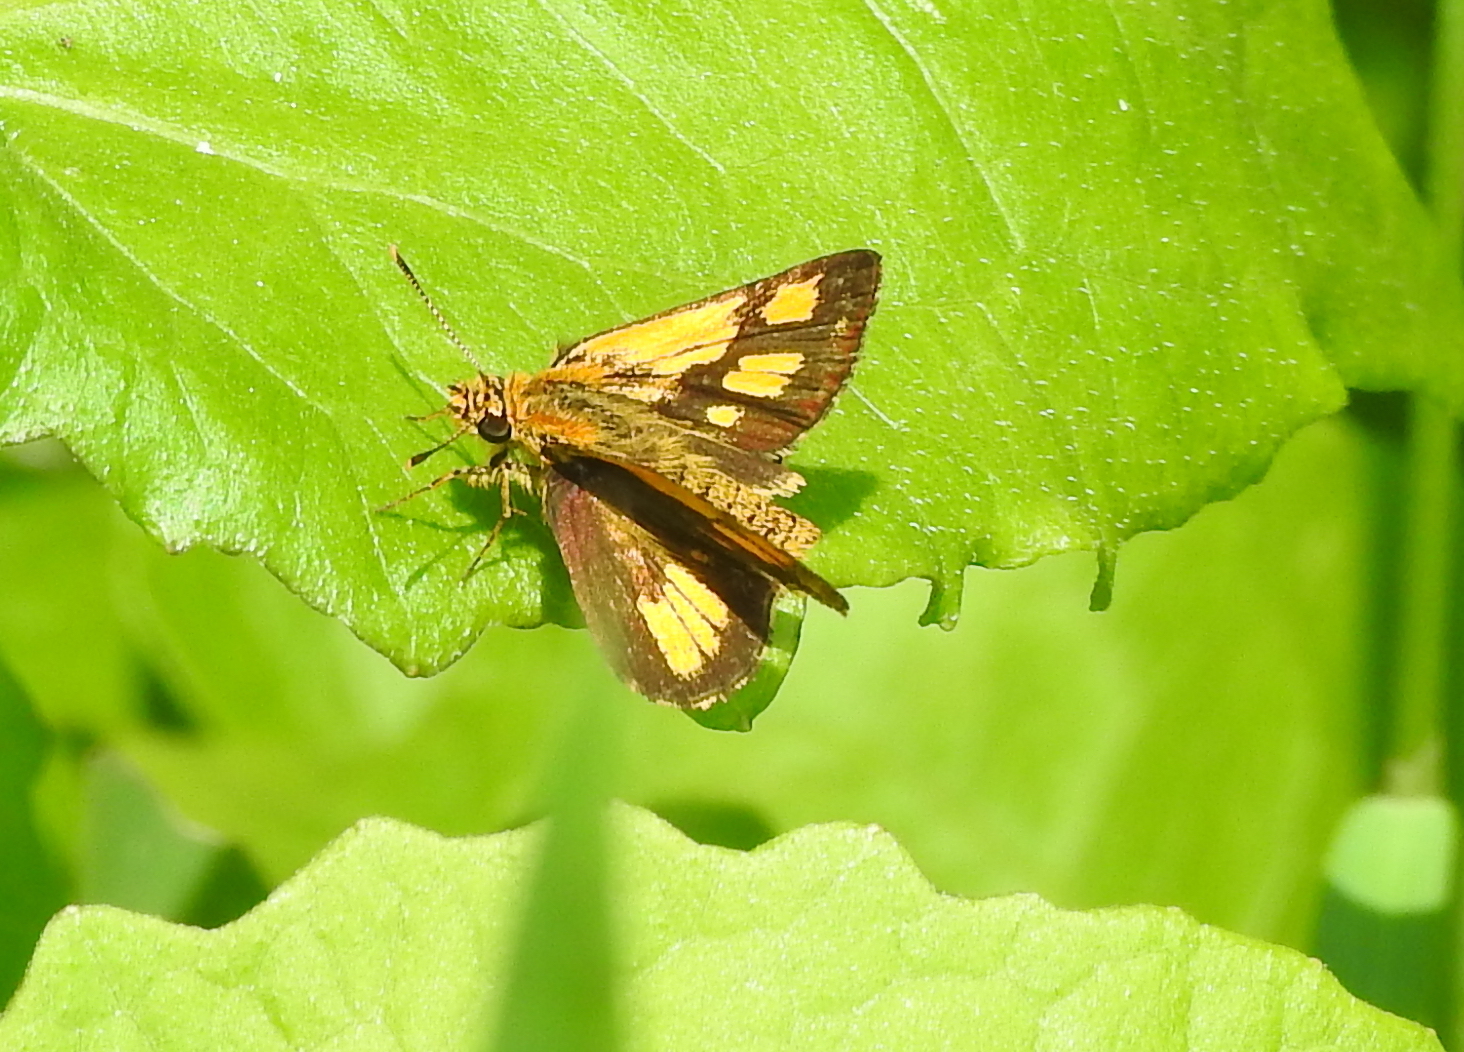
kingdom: Animalia
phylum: Arthropoda
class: Insecta
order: Lepidoptera
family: Hesperiidae
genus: Ampittia
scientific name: Ampittia dioscorides
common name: Common bush hopper
